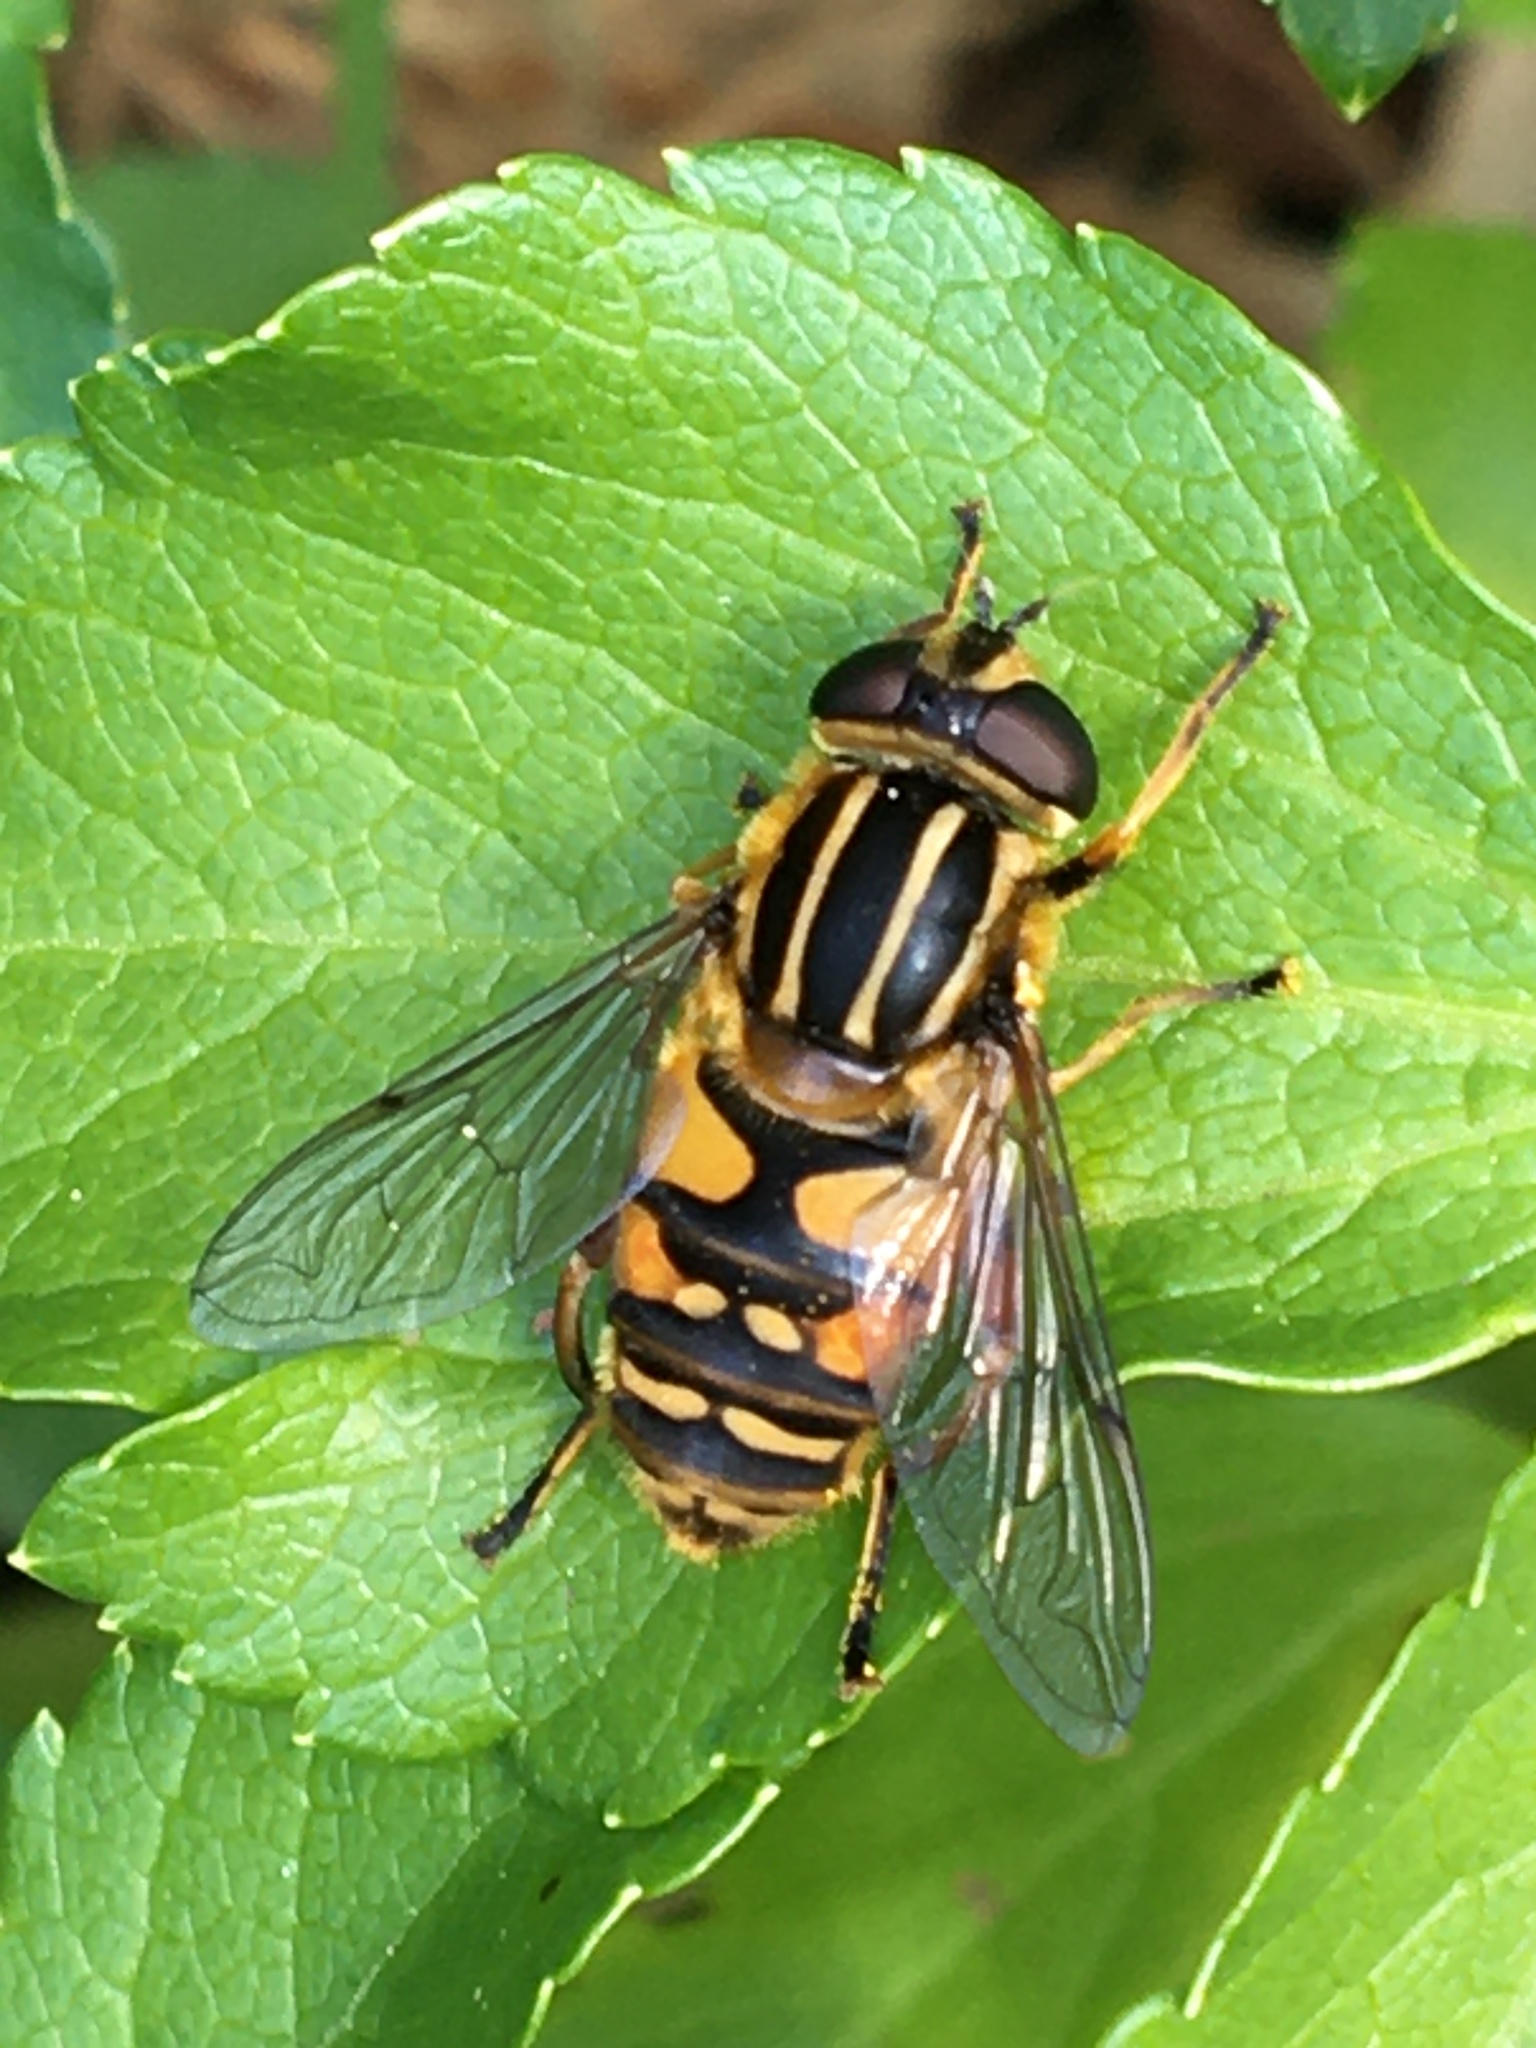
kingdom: Animalia
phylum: Arthropoda
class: Insecta
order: Diptera
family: Syrphidae
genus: Helophilus
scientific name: Helophilus pendulus
